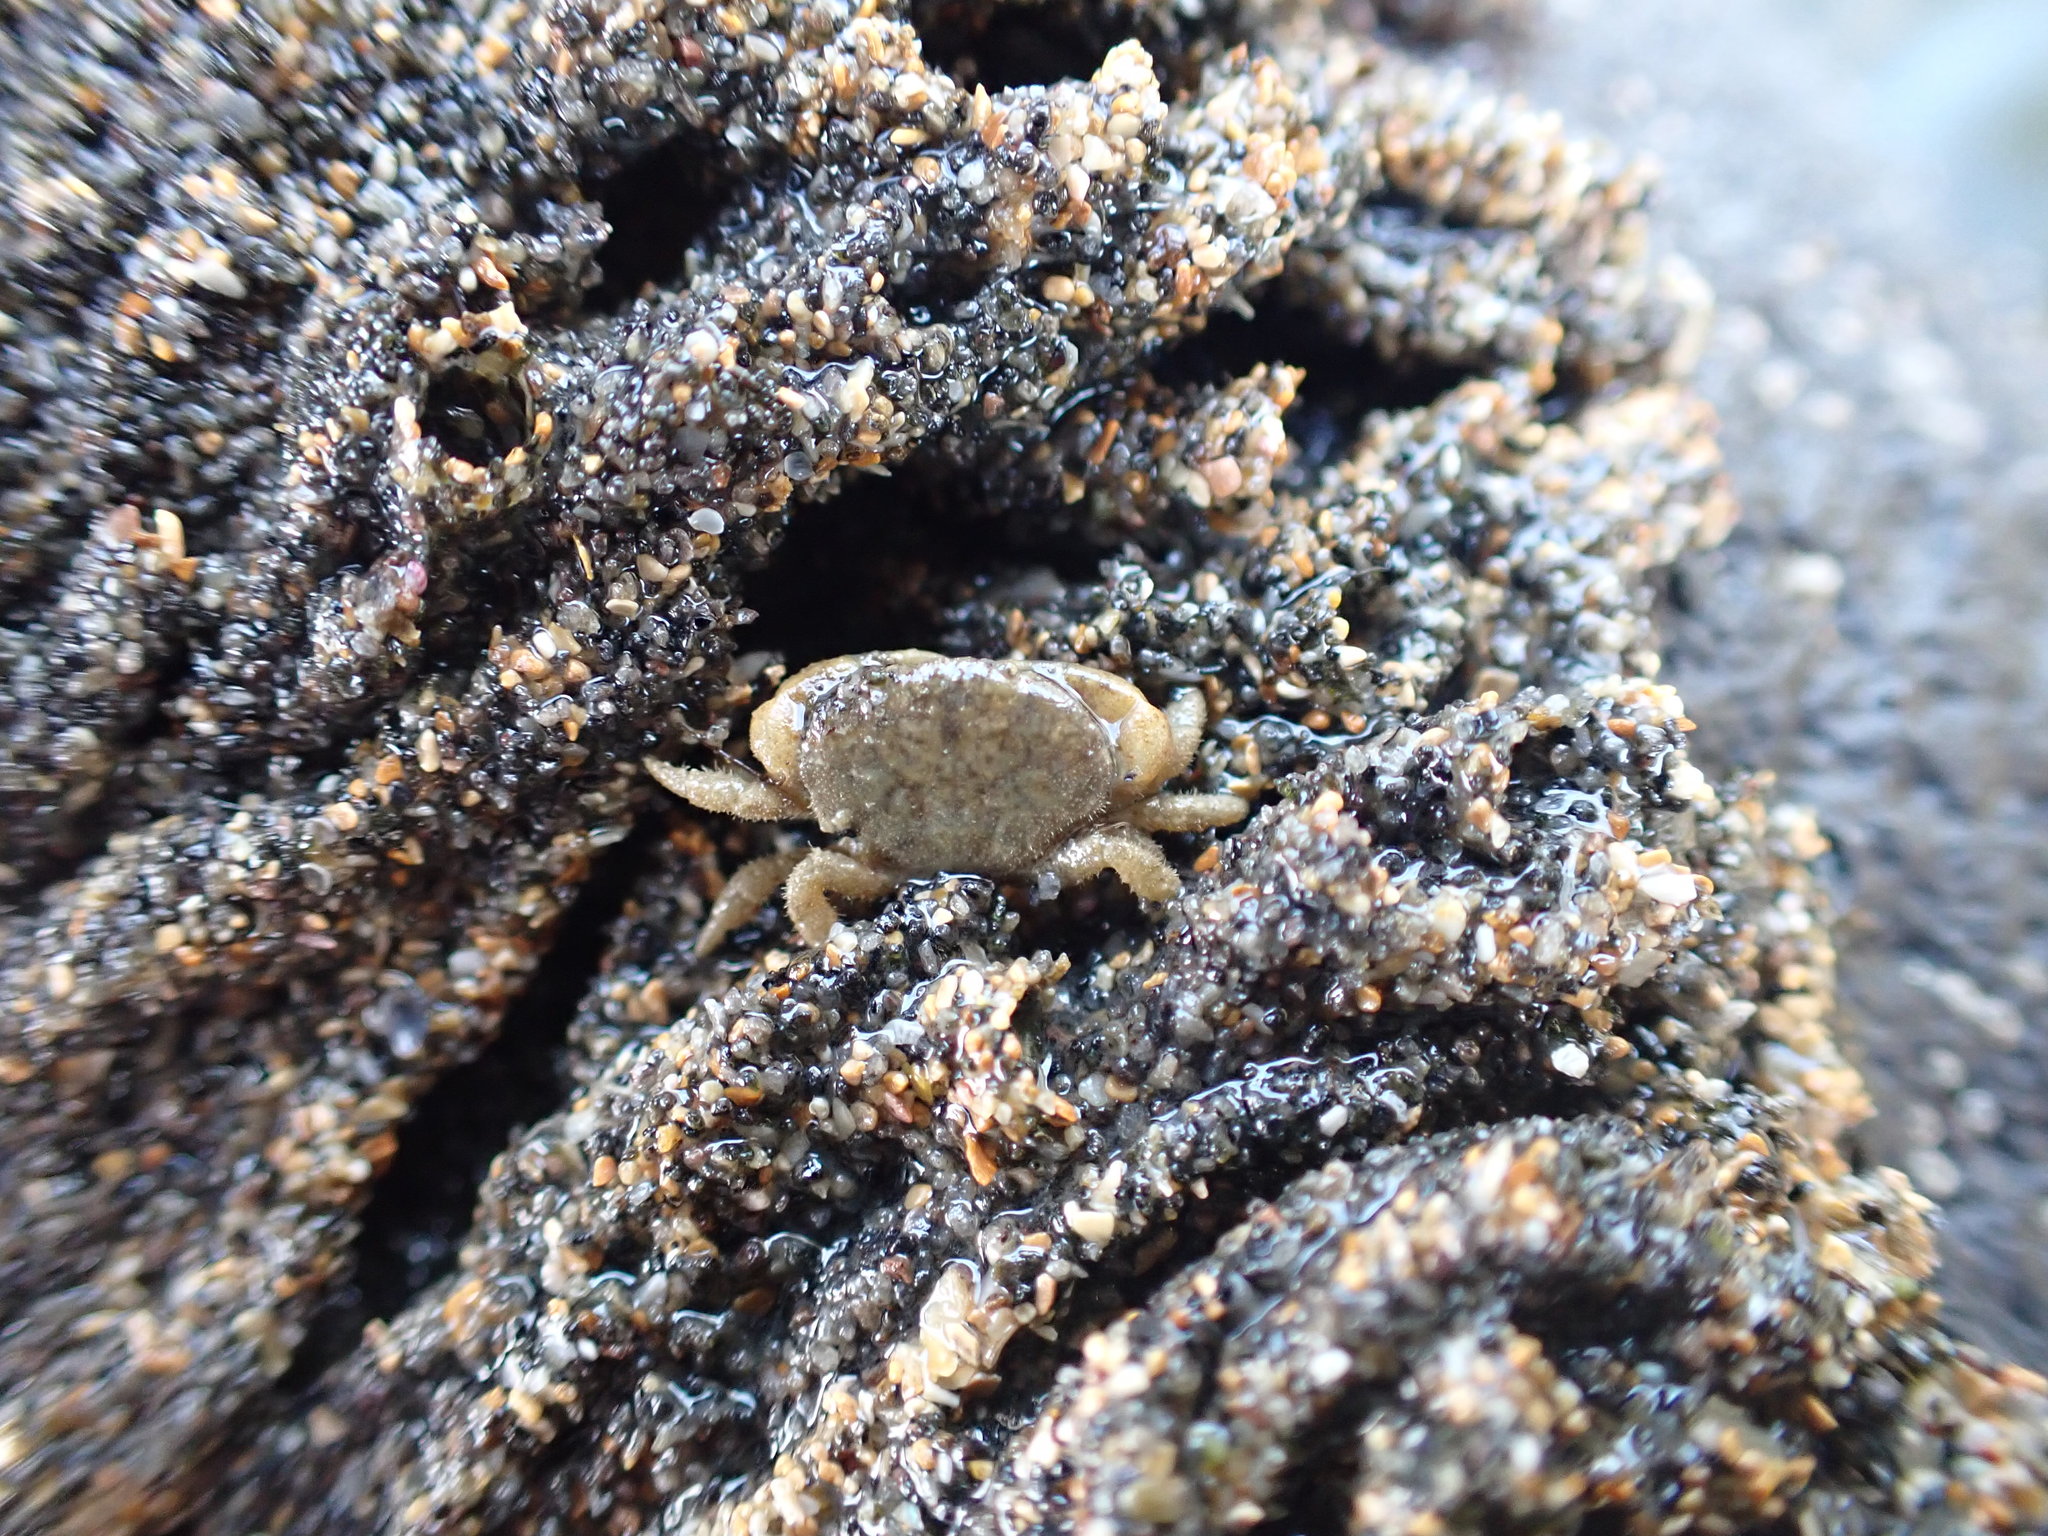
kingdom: Animalia
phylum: Arthropoda
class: Malacostraca
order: Decapoda
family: Heteroziidae
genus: Heterozius
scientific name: Heterozius rotundifrons
